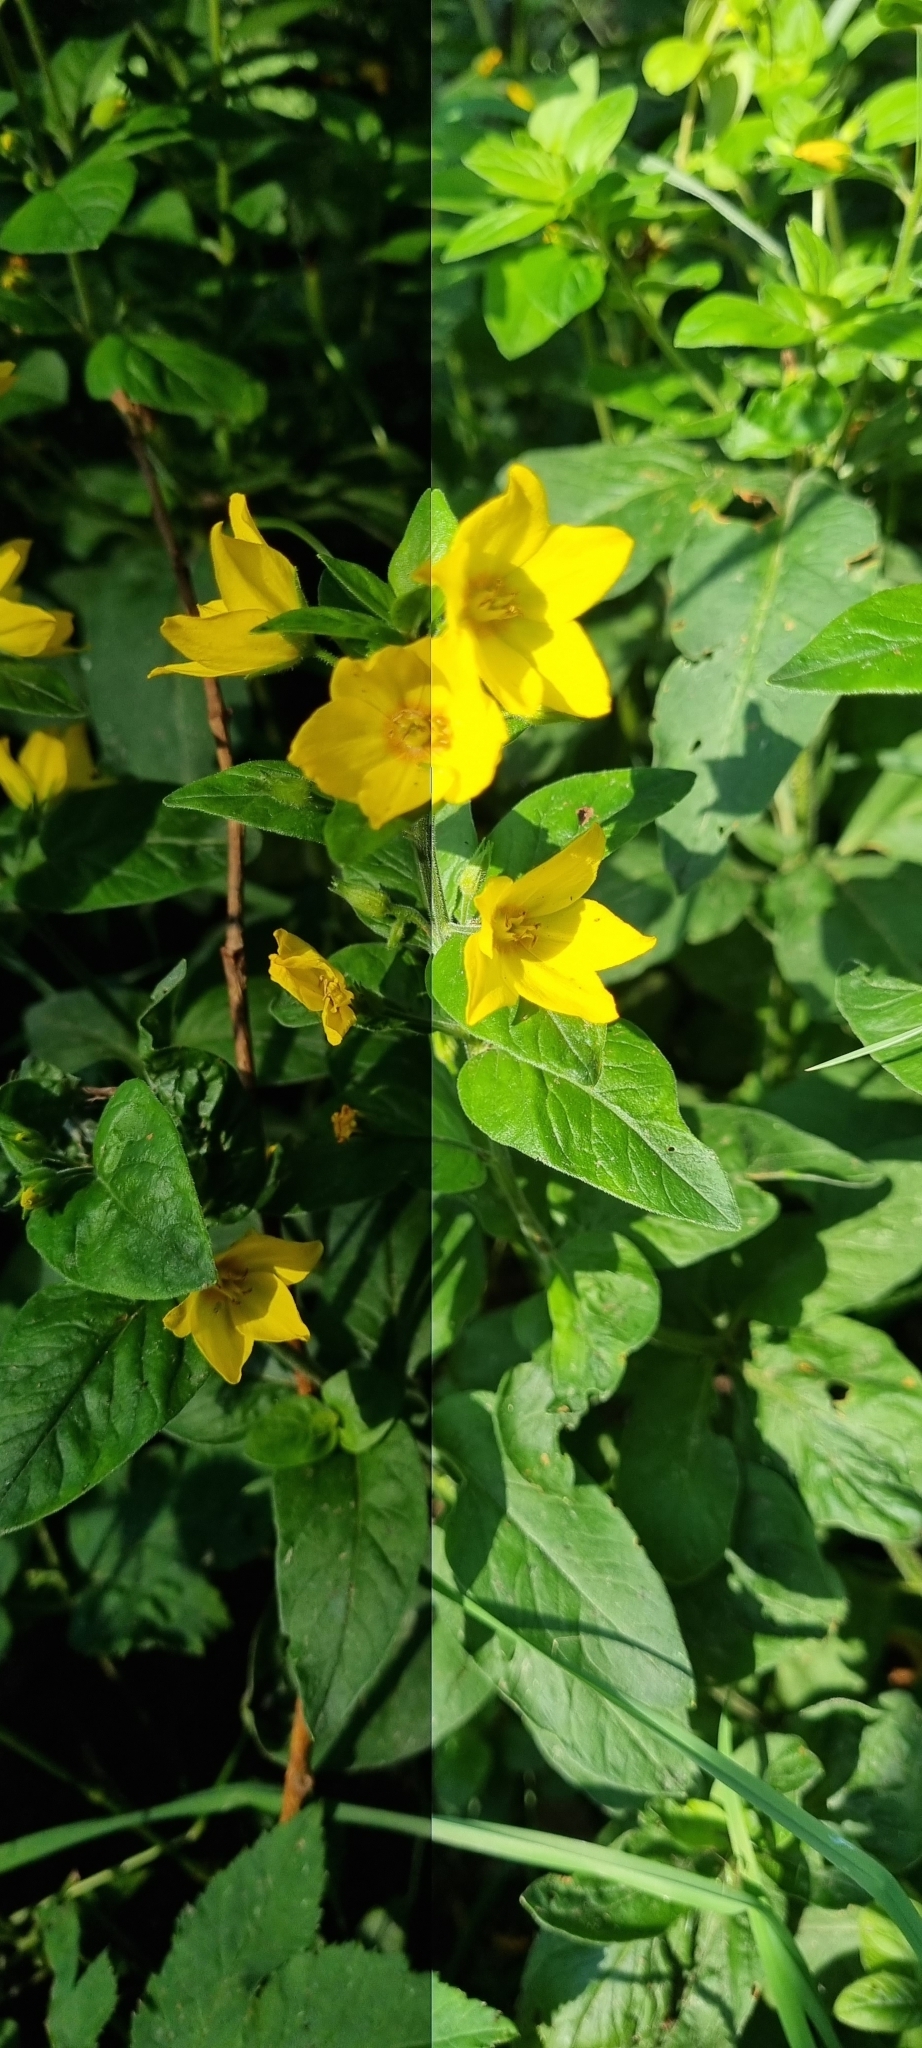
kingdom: Plantae
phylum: Tracheophyta
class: Magnoliopsida
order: Ericales
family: Primulaceae
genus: Lysimachia
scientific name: Lysimachia punctata
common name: Dotted loosestrife
